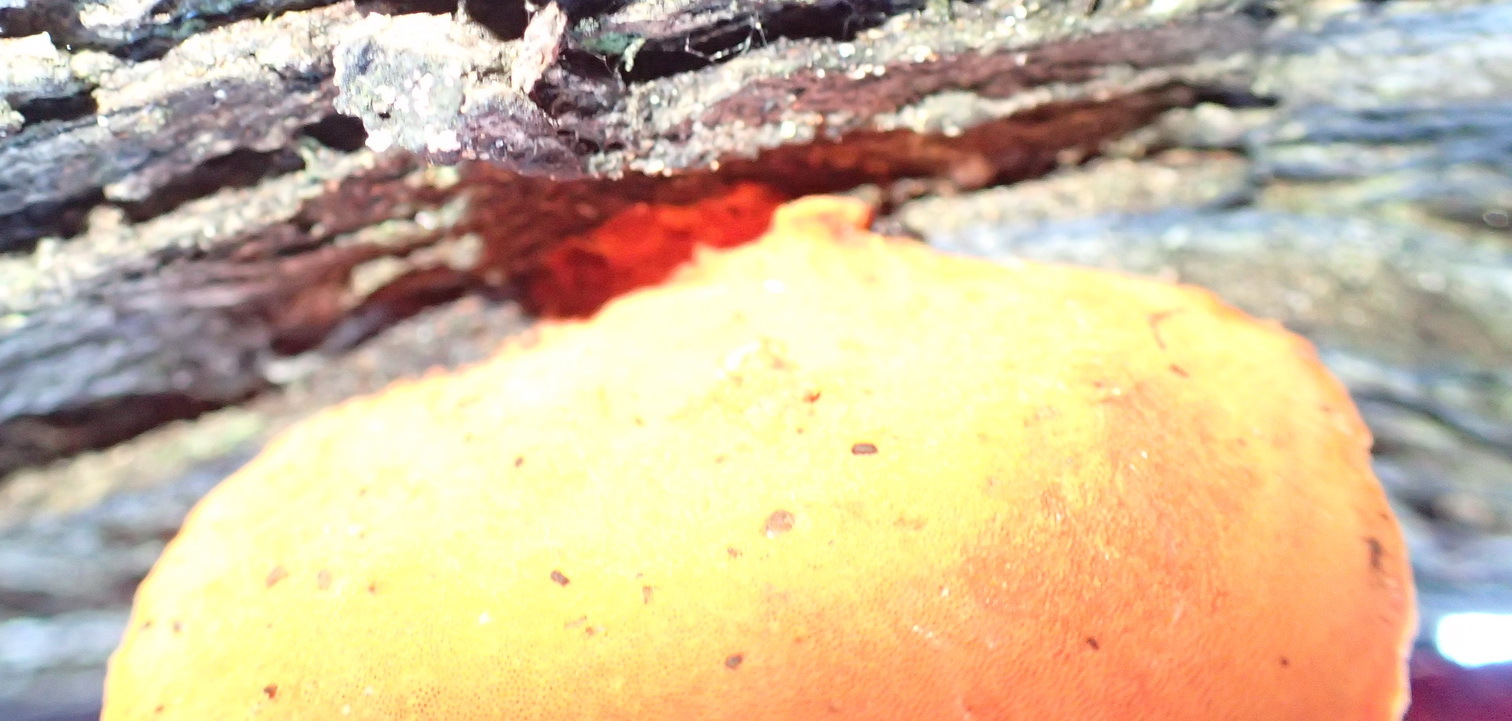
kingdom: Fungi
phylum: Basidiomycota
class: Agaricomycetes
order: Polyporales
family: Polyporaceae
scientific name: Polyporaceae
